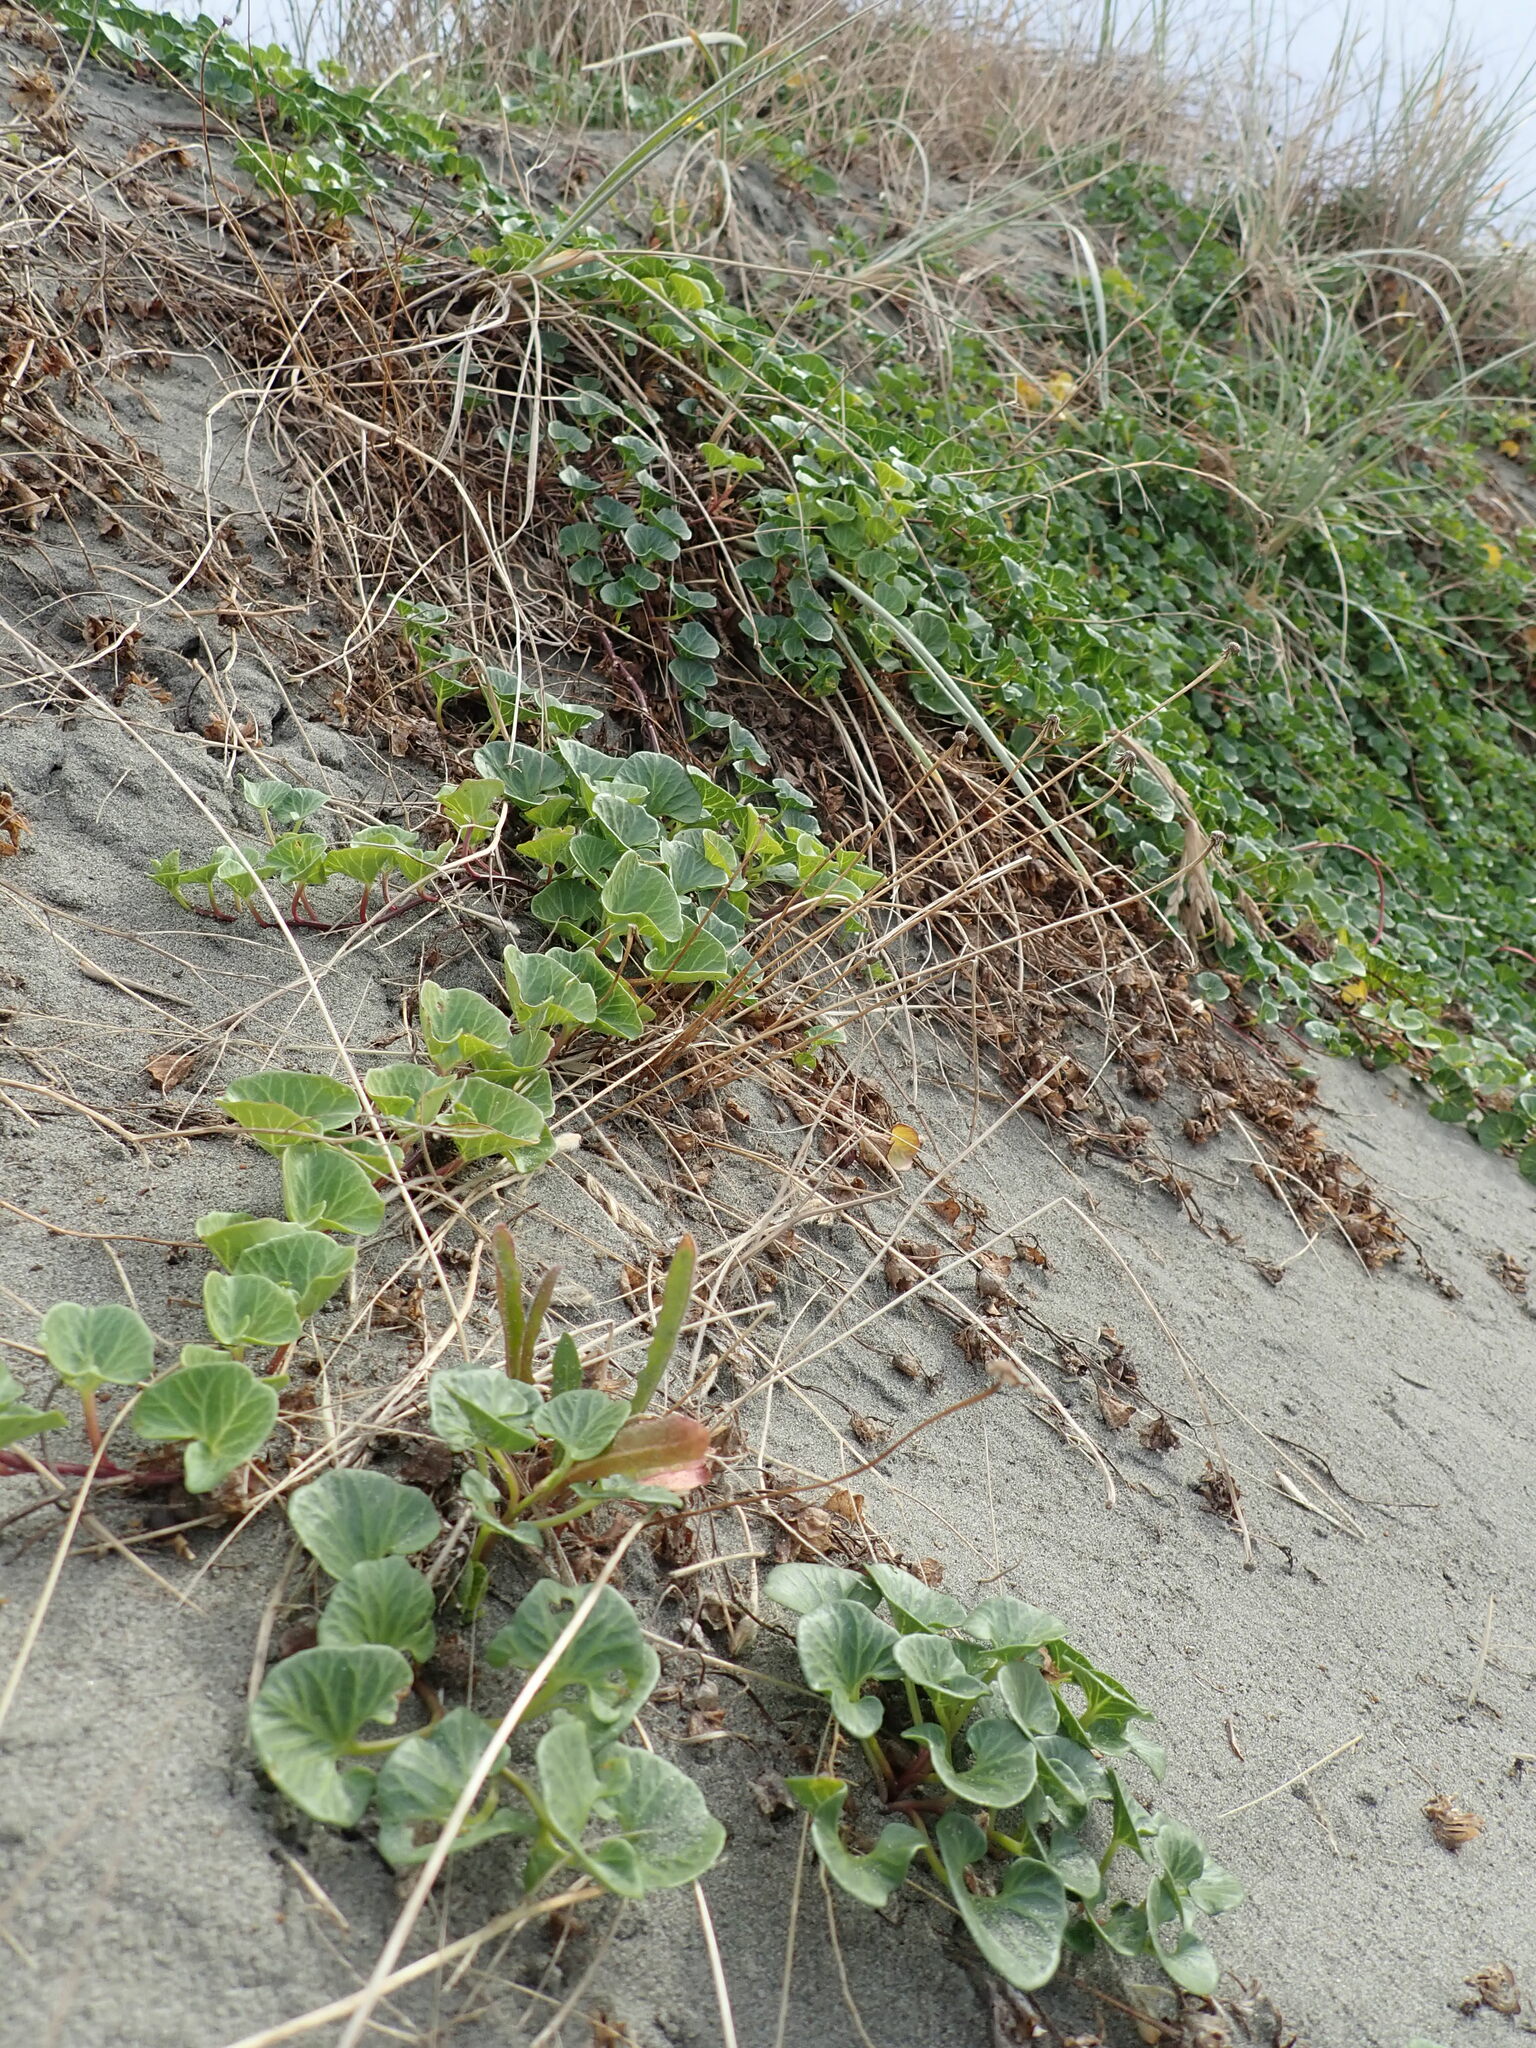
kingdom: Plantae
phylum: Tracheophyta
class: Magnoliopsida
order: Solanales
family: Convolvulaceae
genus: Calystegia
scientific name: Calystegia soldanella
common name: Sea bindweed
